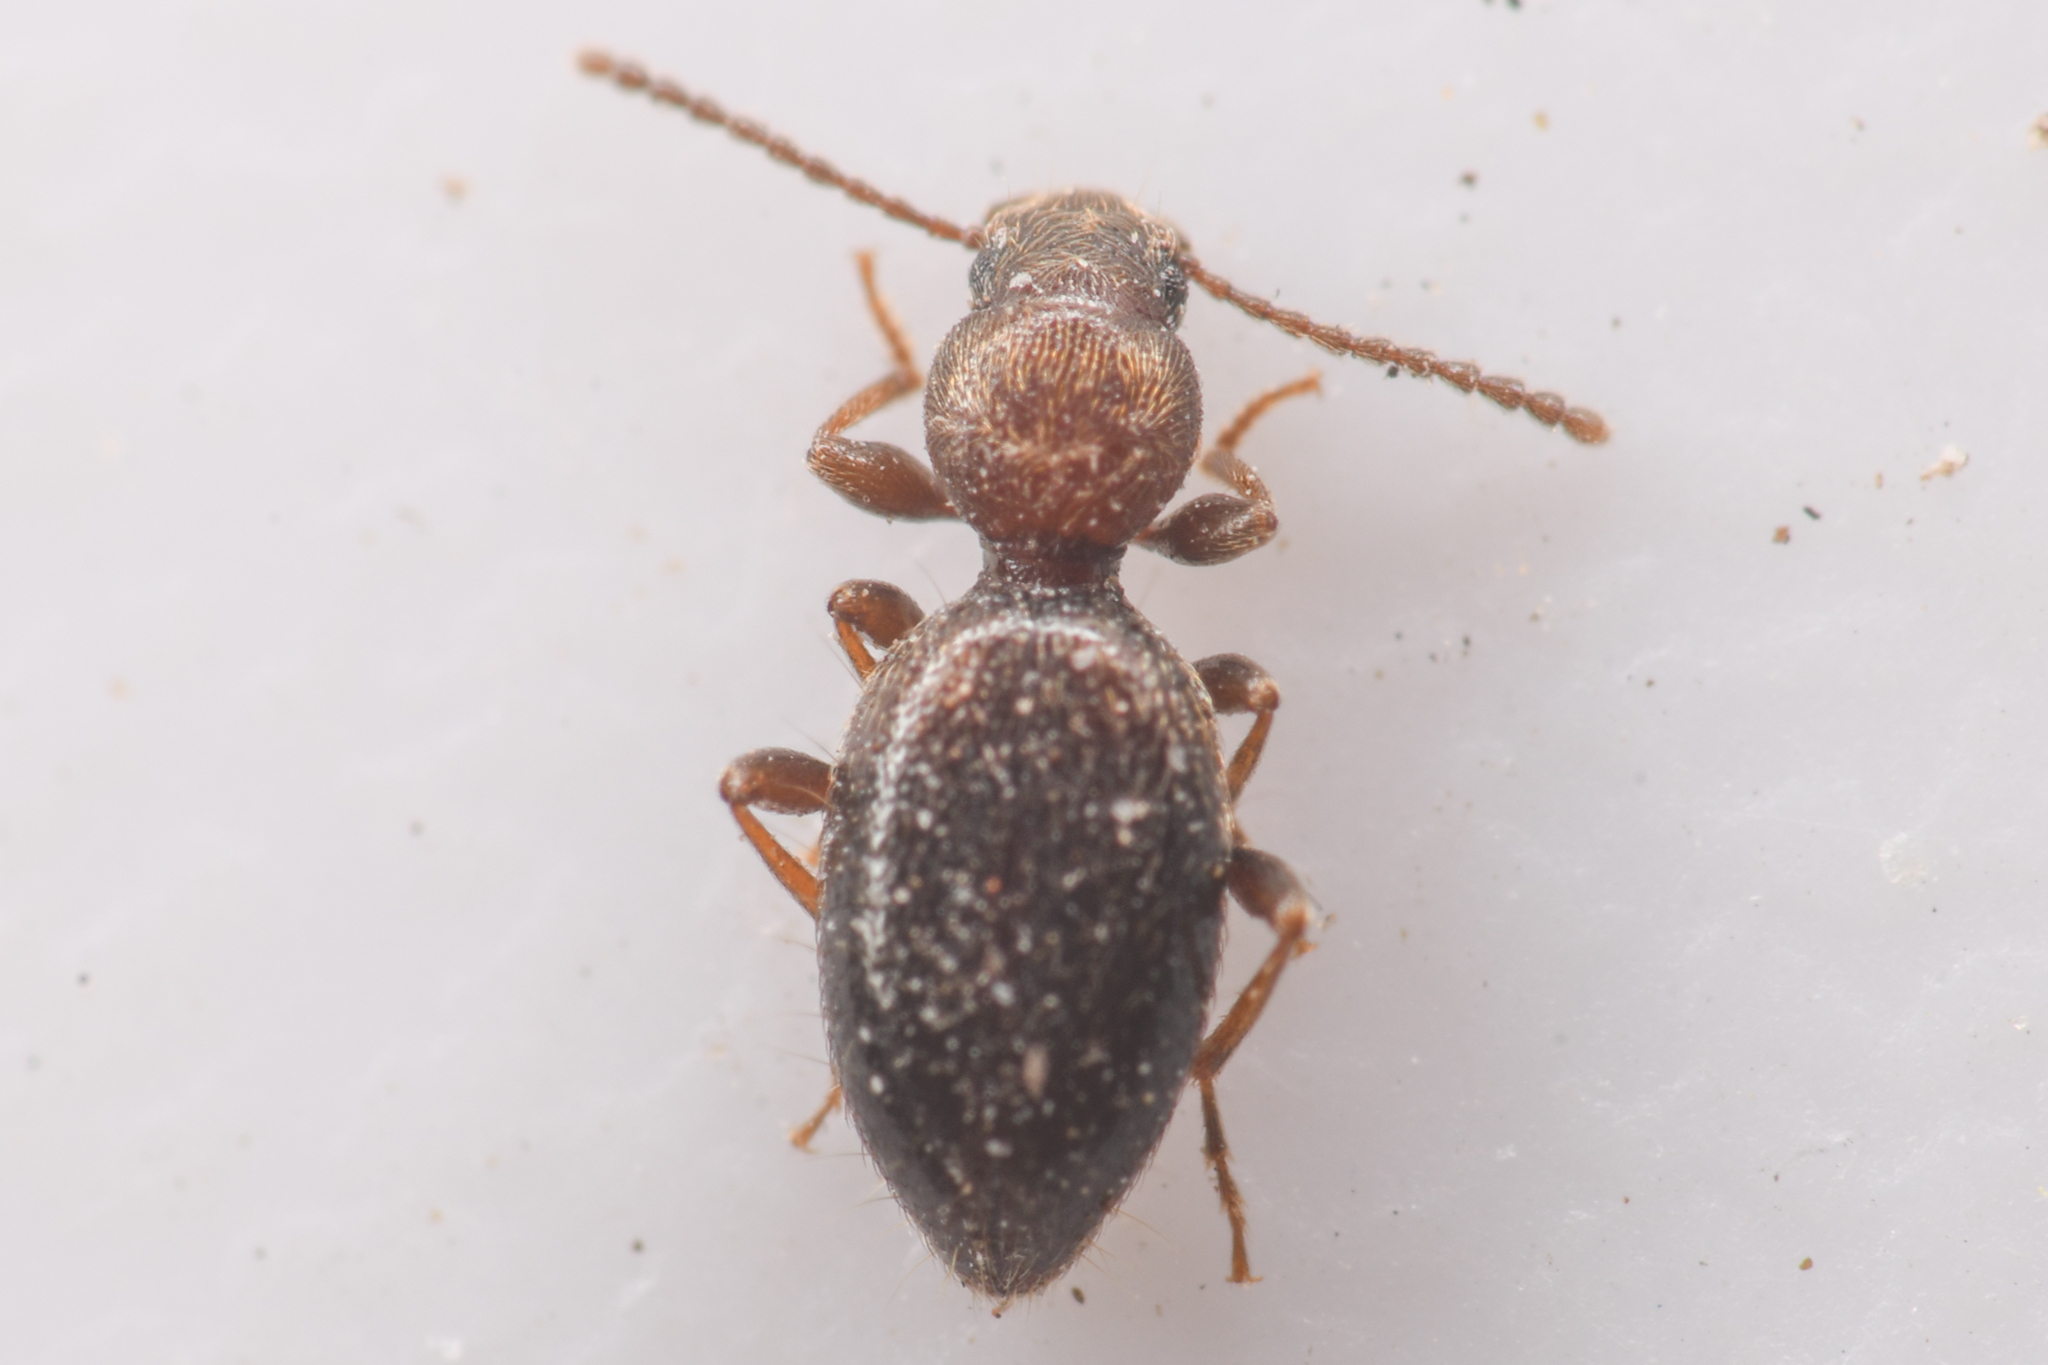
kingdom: Animalia
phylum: Arthropoda
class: Insecta
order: Coleoptera
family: Tenebrionidae
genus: Apocrypha
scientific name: Apocrypha anthicoides
